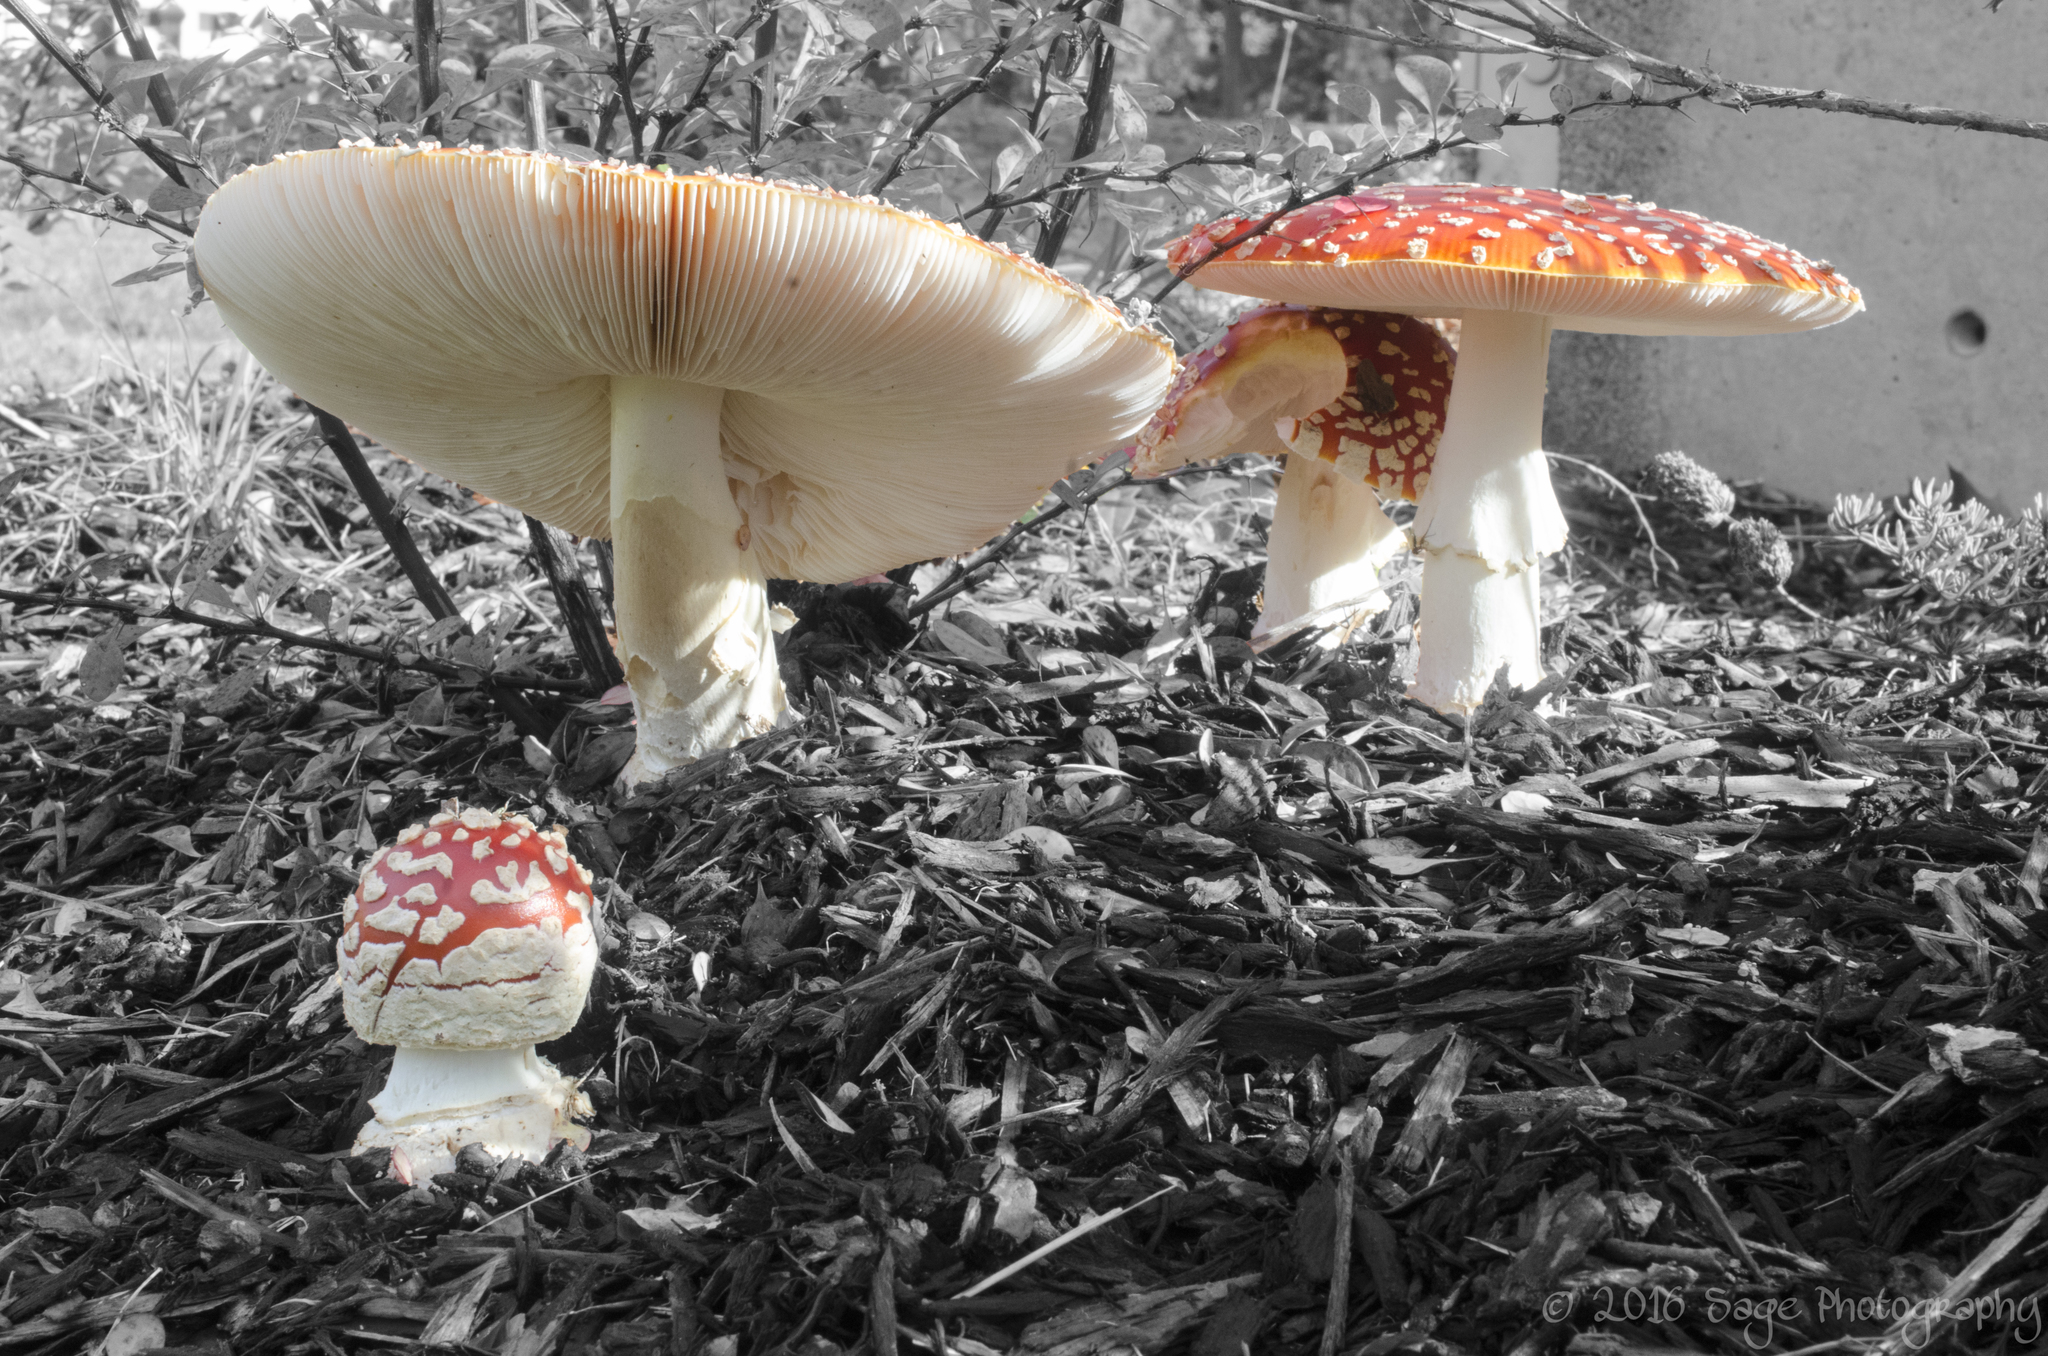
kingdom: Fungi
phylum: Basidiomycota
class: Agaricomycetes
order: Agaricales
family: Amanitaceae
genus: Amanita
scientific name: Amanita muscaria
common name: Fly agaric
